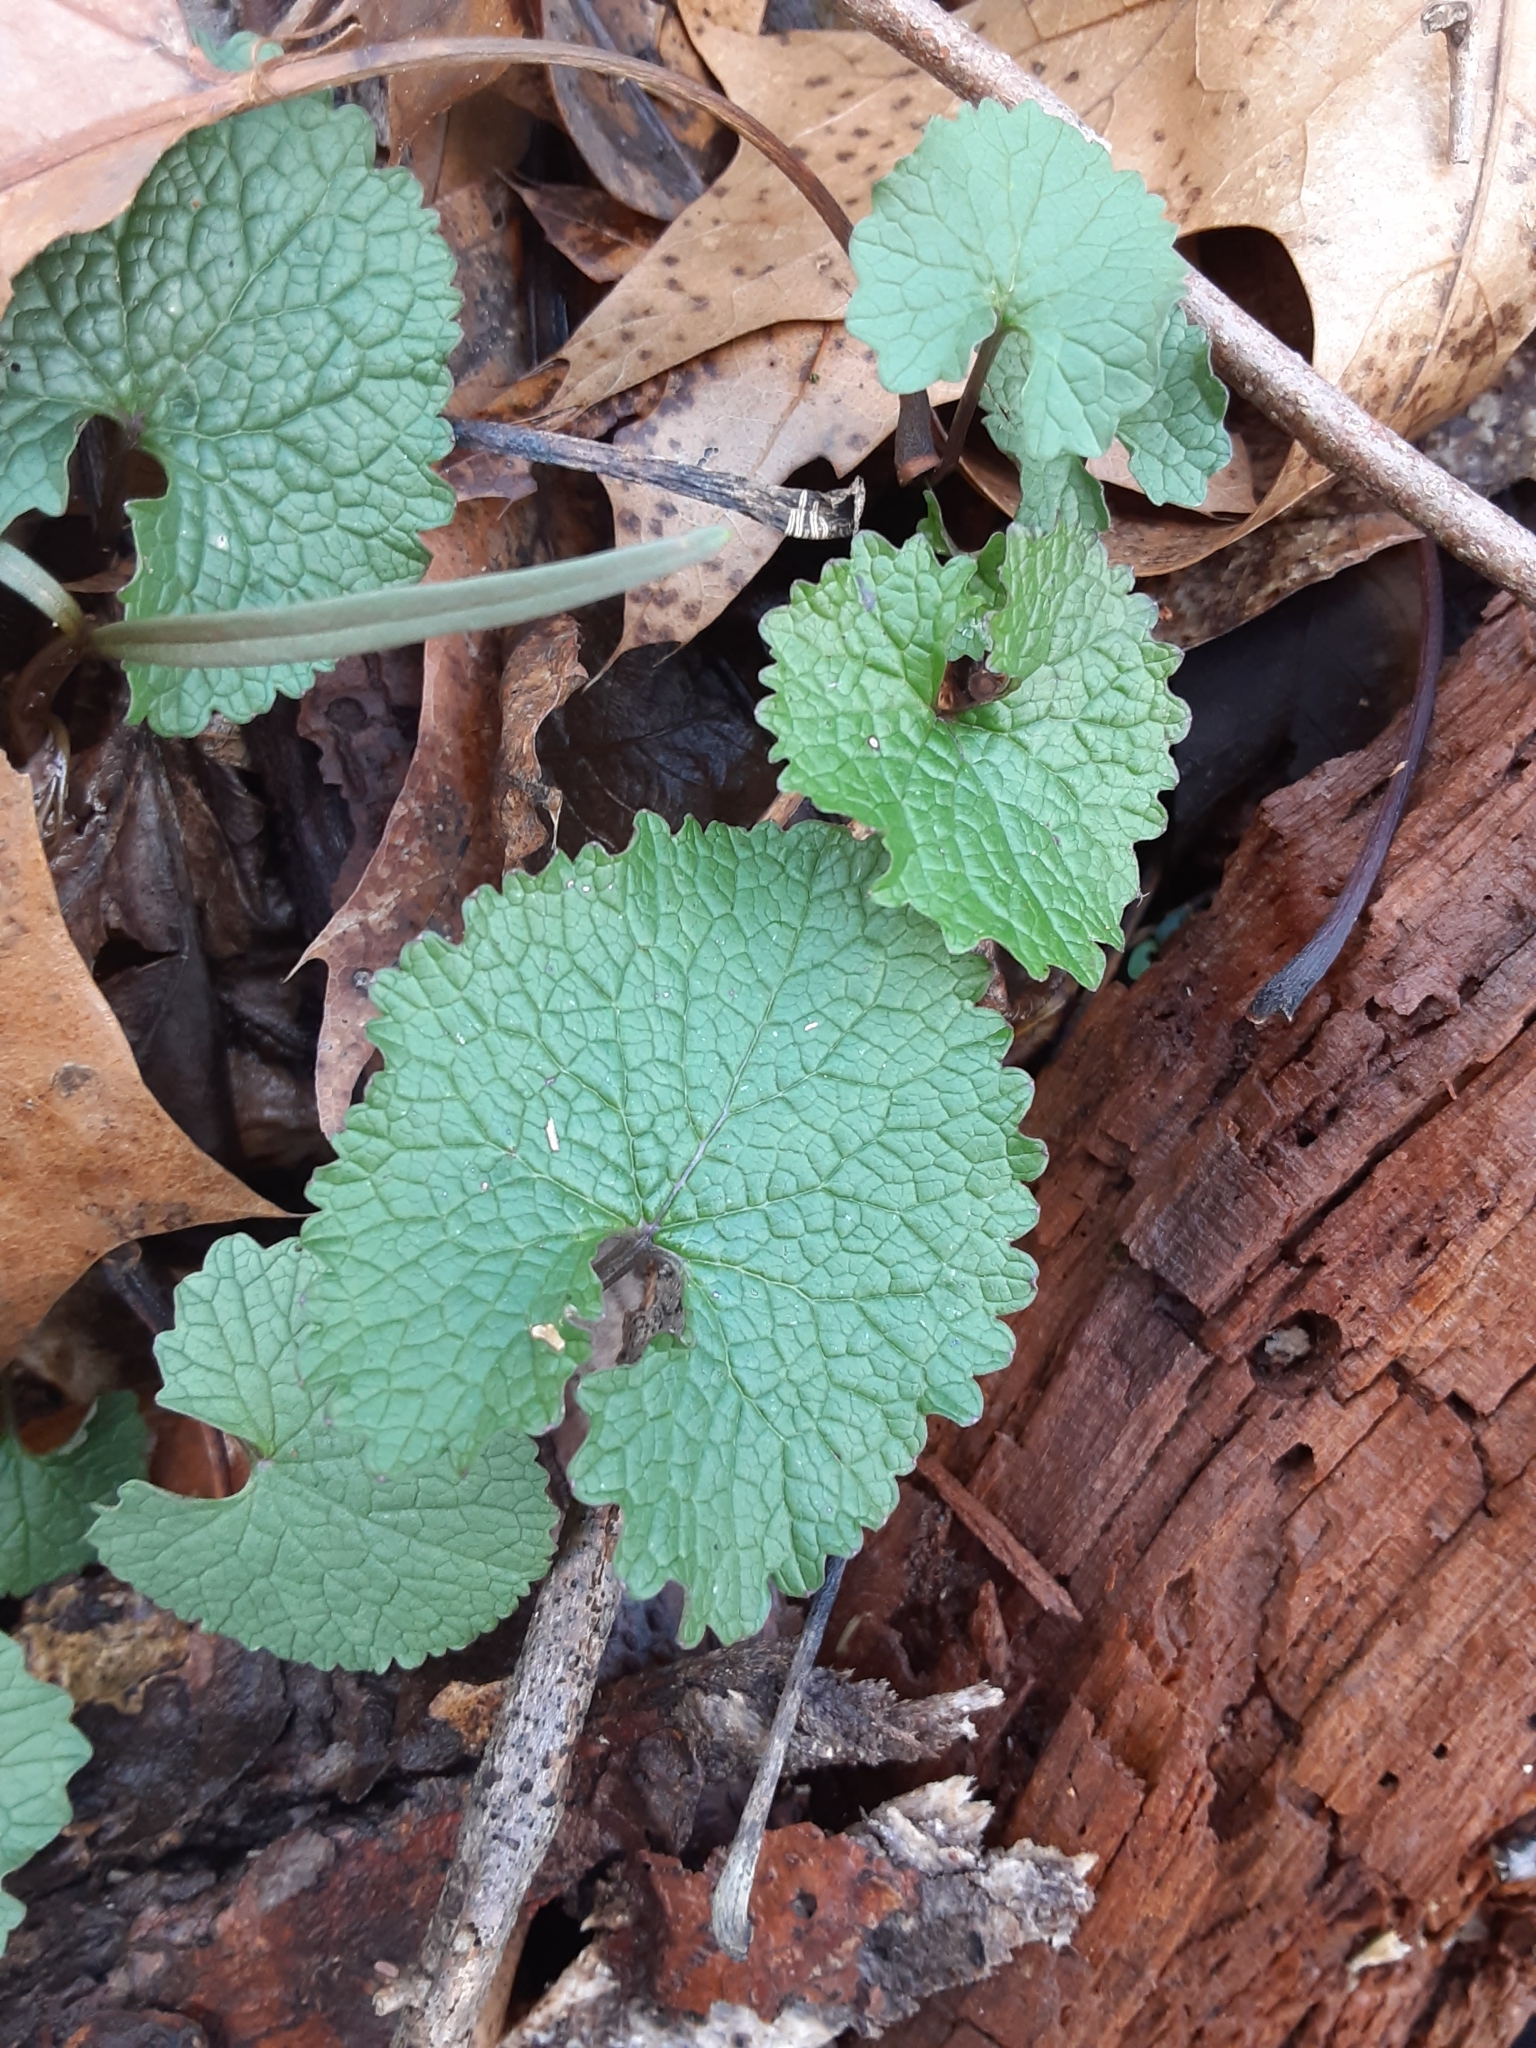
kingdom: Plantae
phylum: Tracheophyta
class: Magnoliopsida
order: Brassicales
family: Brassicaceae
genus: Alliaria
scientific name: Alliaria petiolata
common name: Garlic mustard
